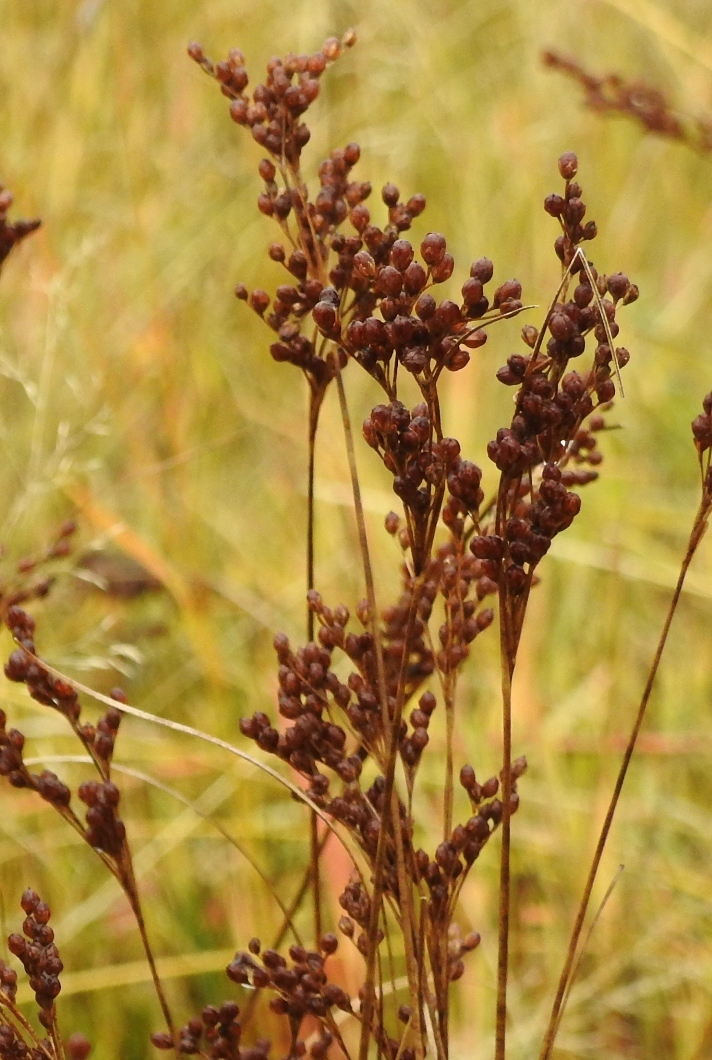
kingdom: Plantae
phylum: Tracheophyta
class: Liliopsida
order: Poales
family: Juncaceae
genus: Juncus
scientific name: Juncus compressus
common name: Round-fruited rush
